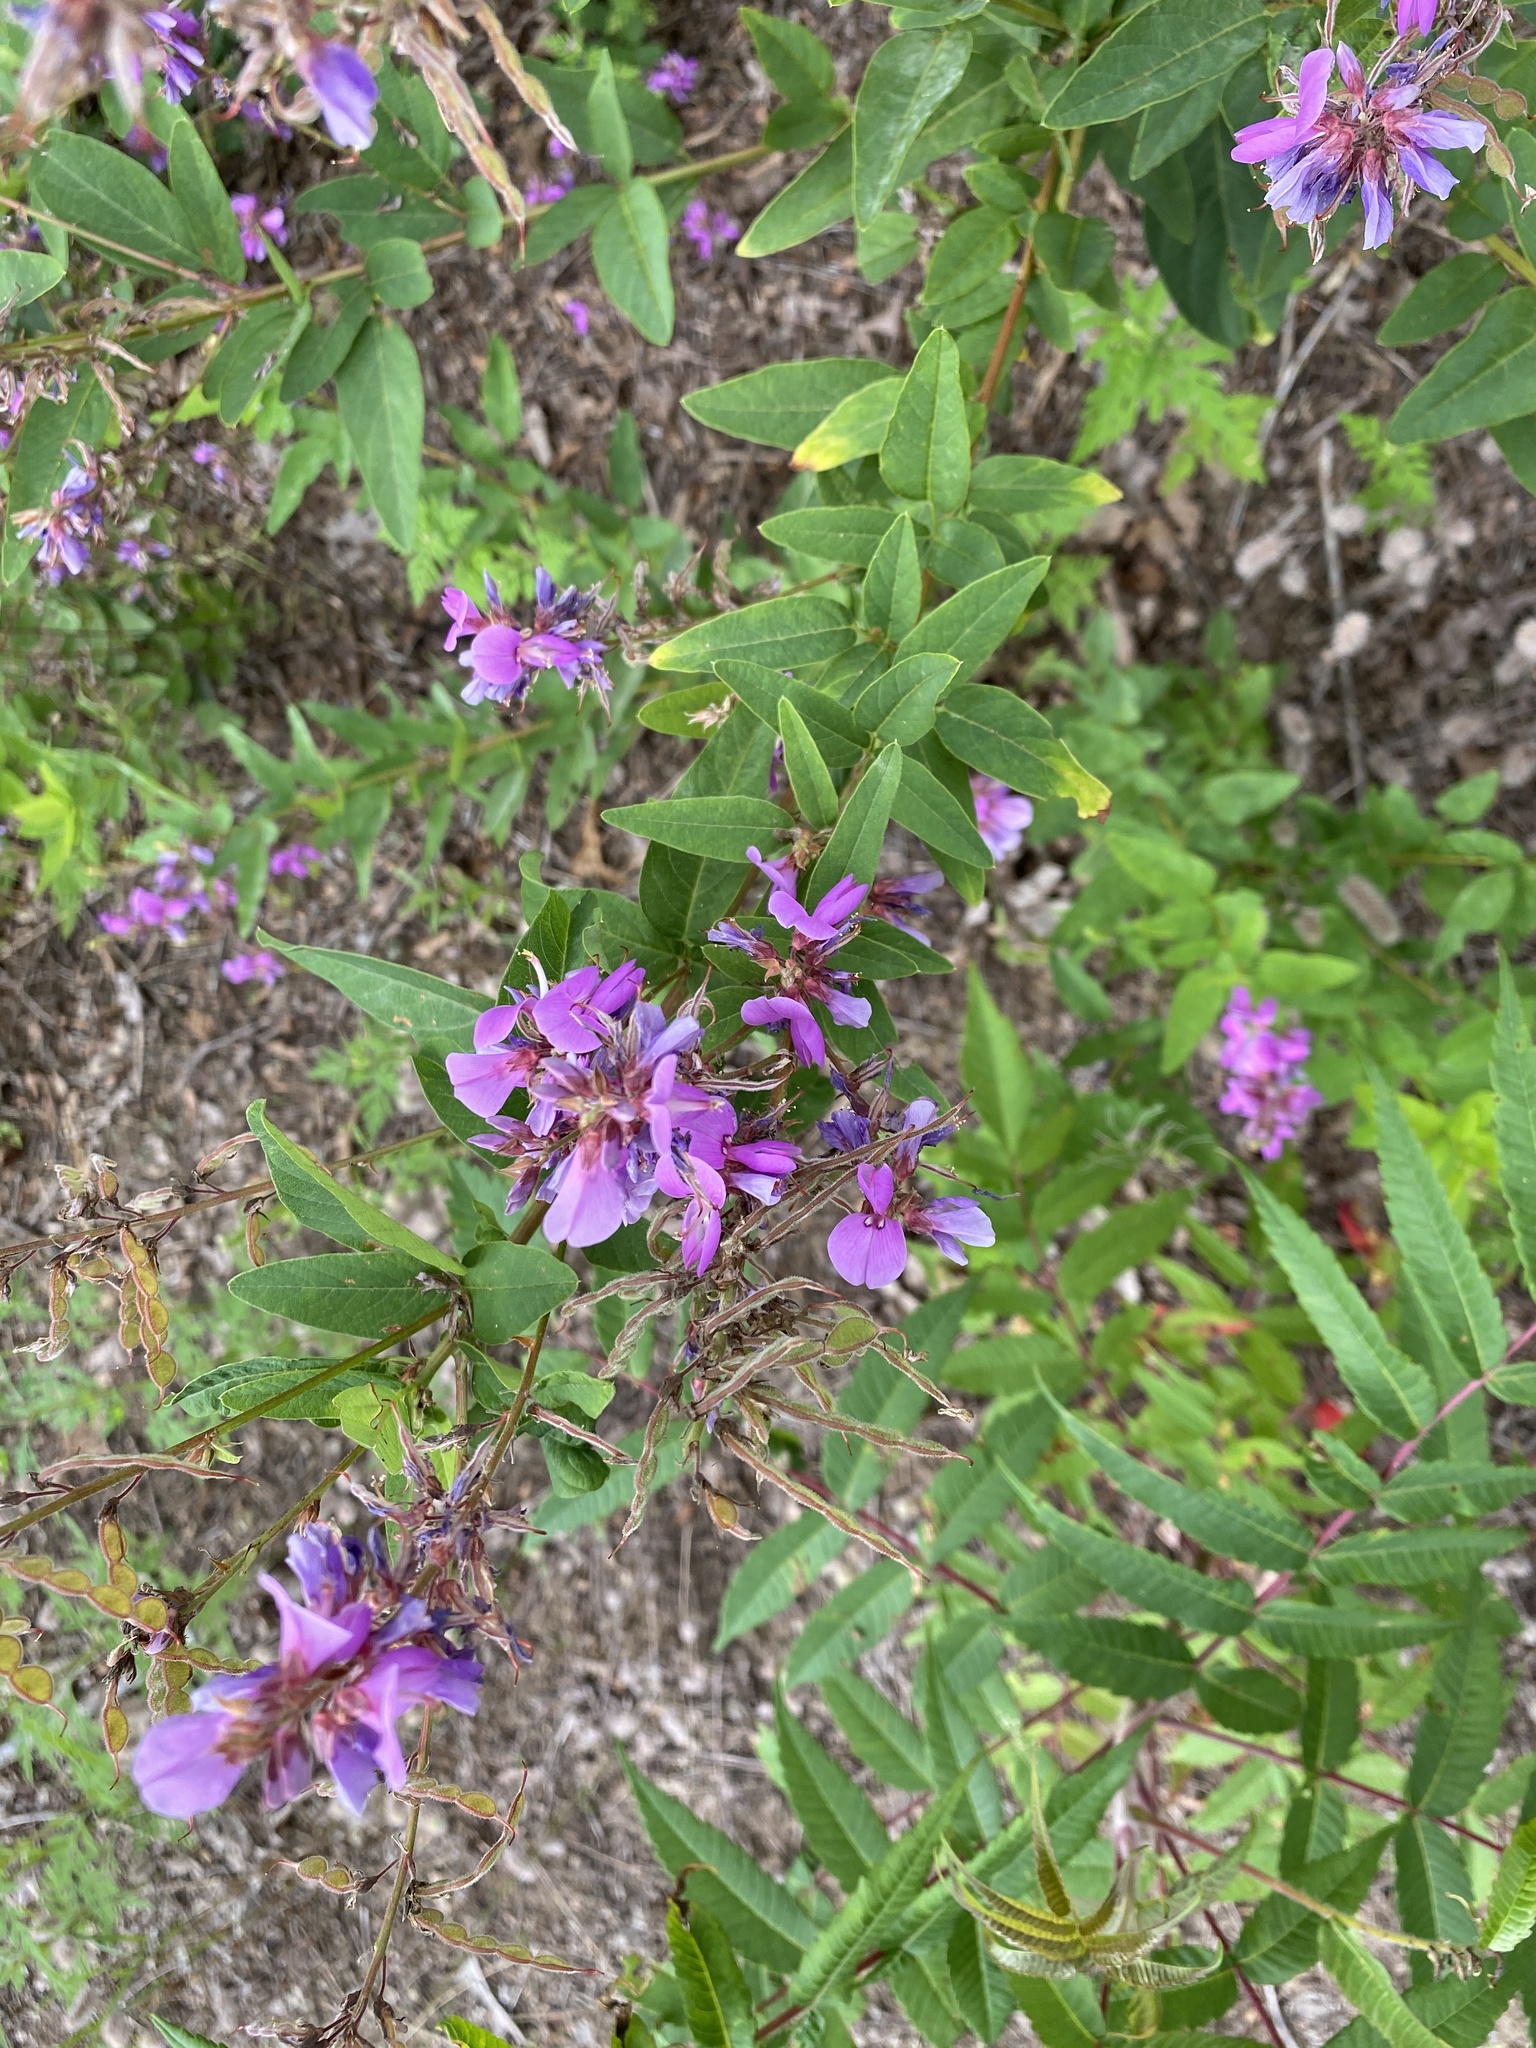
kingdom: Plantae
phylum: Tracheophyta
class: Magnoliopsida
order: Fabales
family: Fabaceae
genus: Desmodium
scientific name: Desmodium canadense
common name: Canada tick-trefoil
